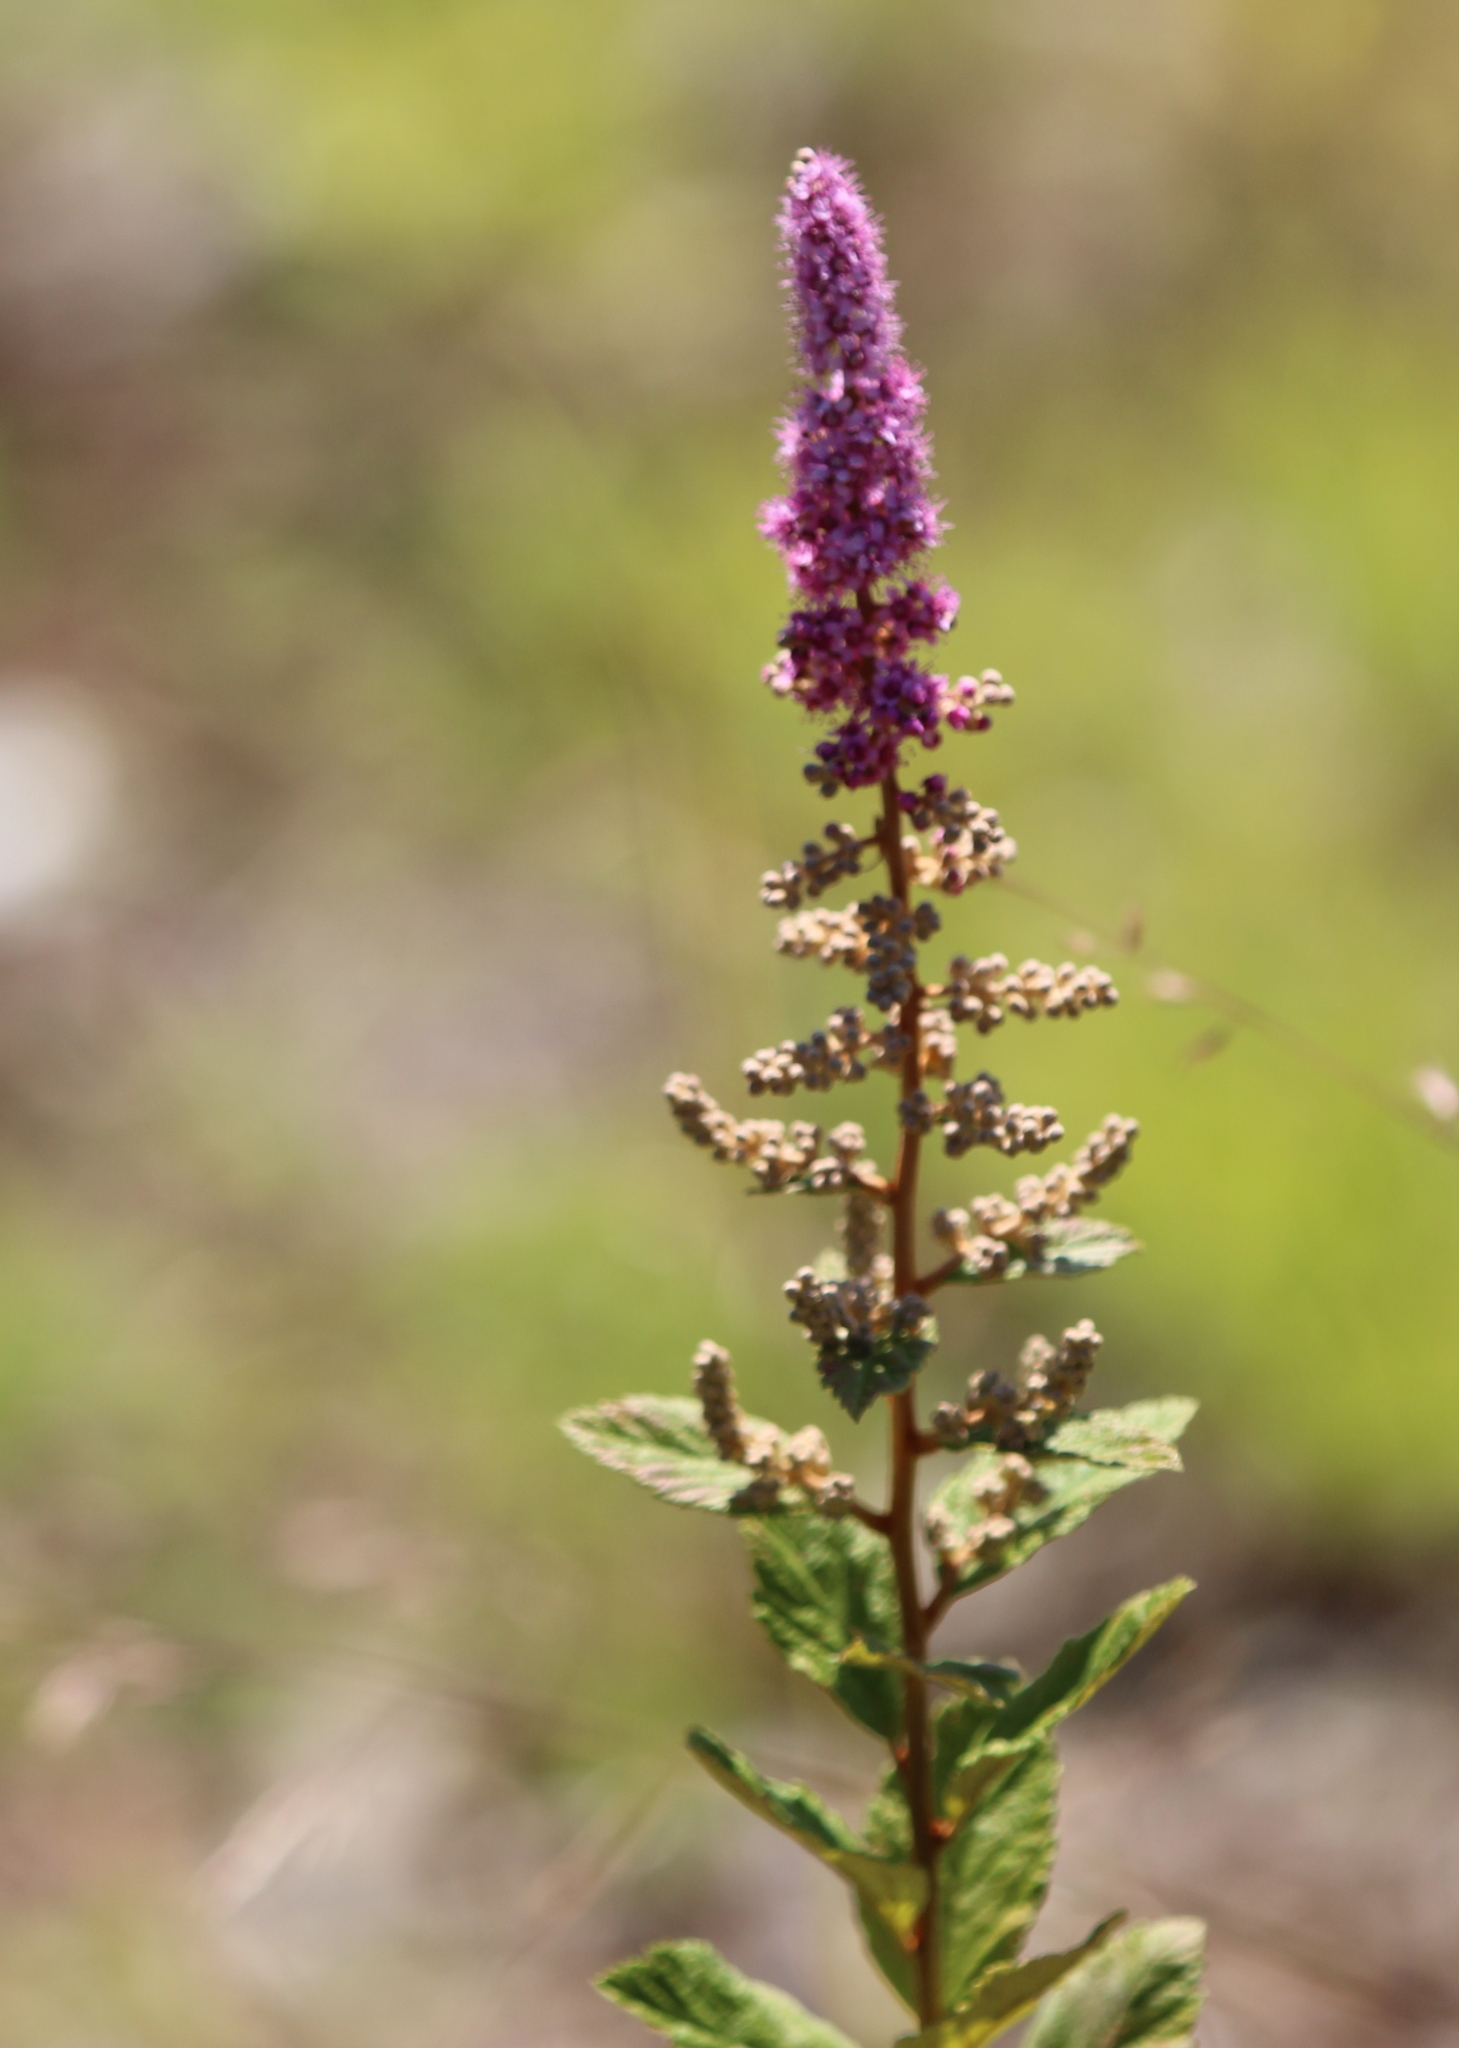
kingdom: Plantae
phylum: Tracheophyta
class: Magnoliopsida
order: Rosales
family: Rosaceae
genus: Spiraea
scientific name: Spiraea tomentosa
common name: Hardhack
